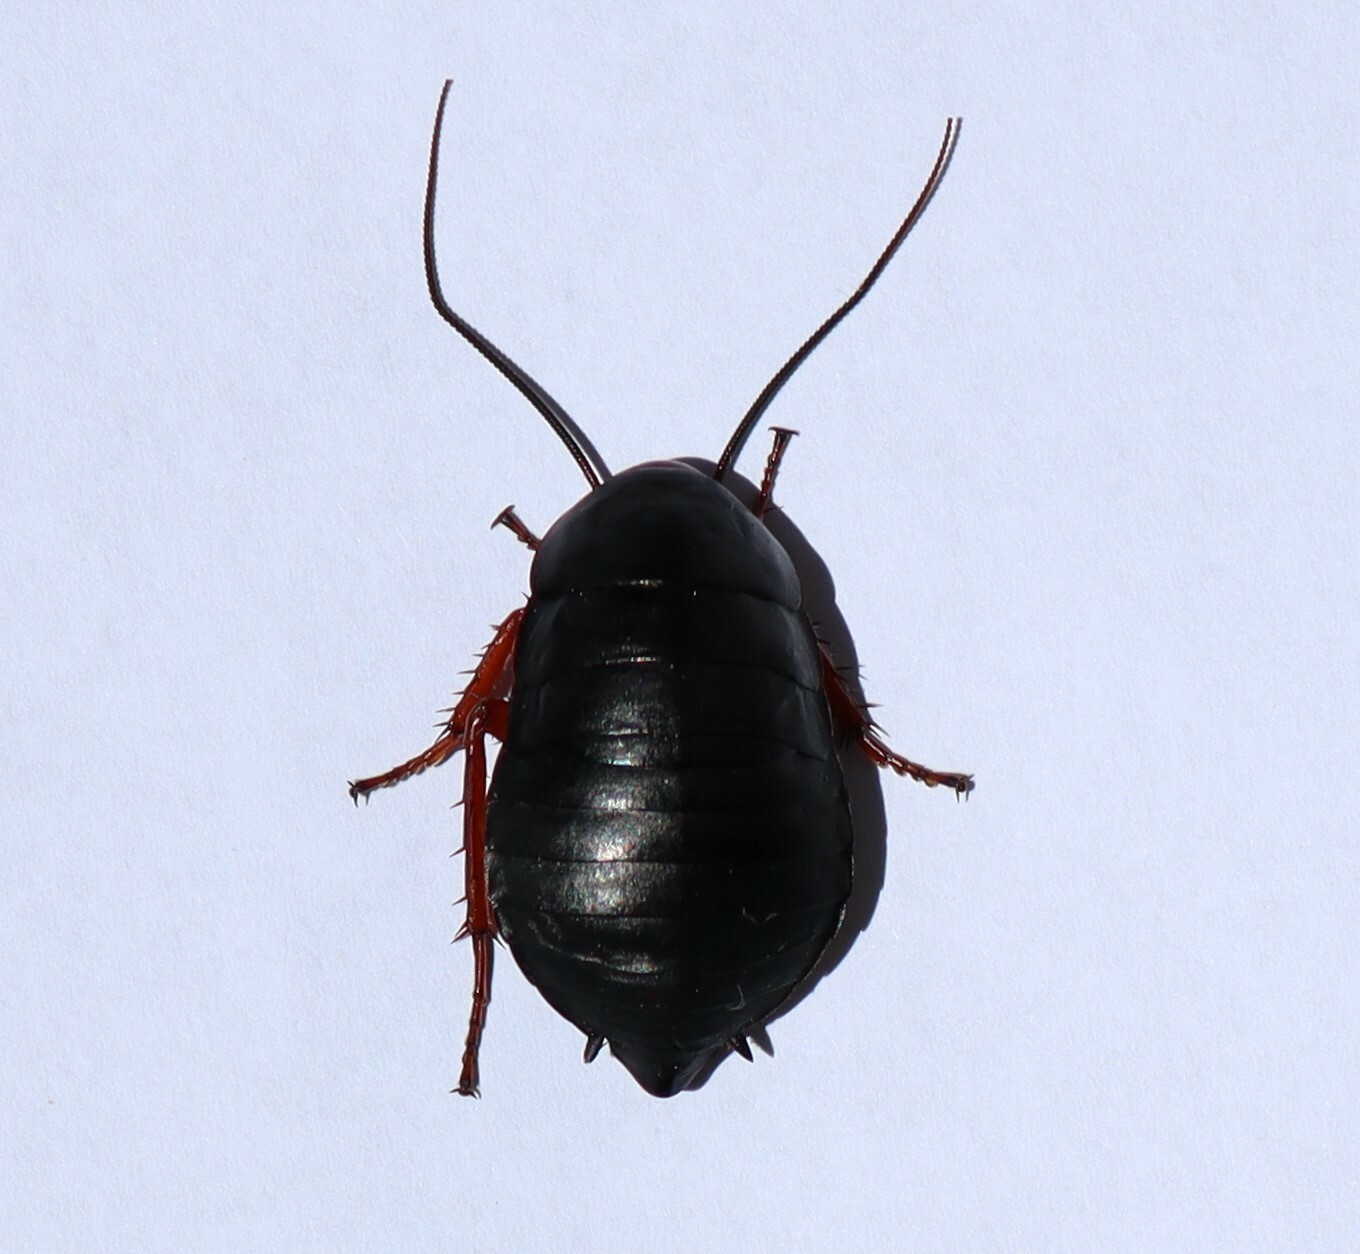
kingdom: Animalia
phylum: Arthropoda
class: Insecta
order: Blattodea
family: Blattidae
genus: Deropeltis
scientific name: Deropeltis erythrocephala
